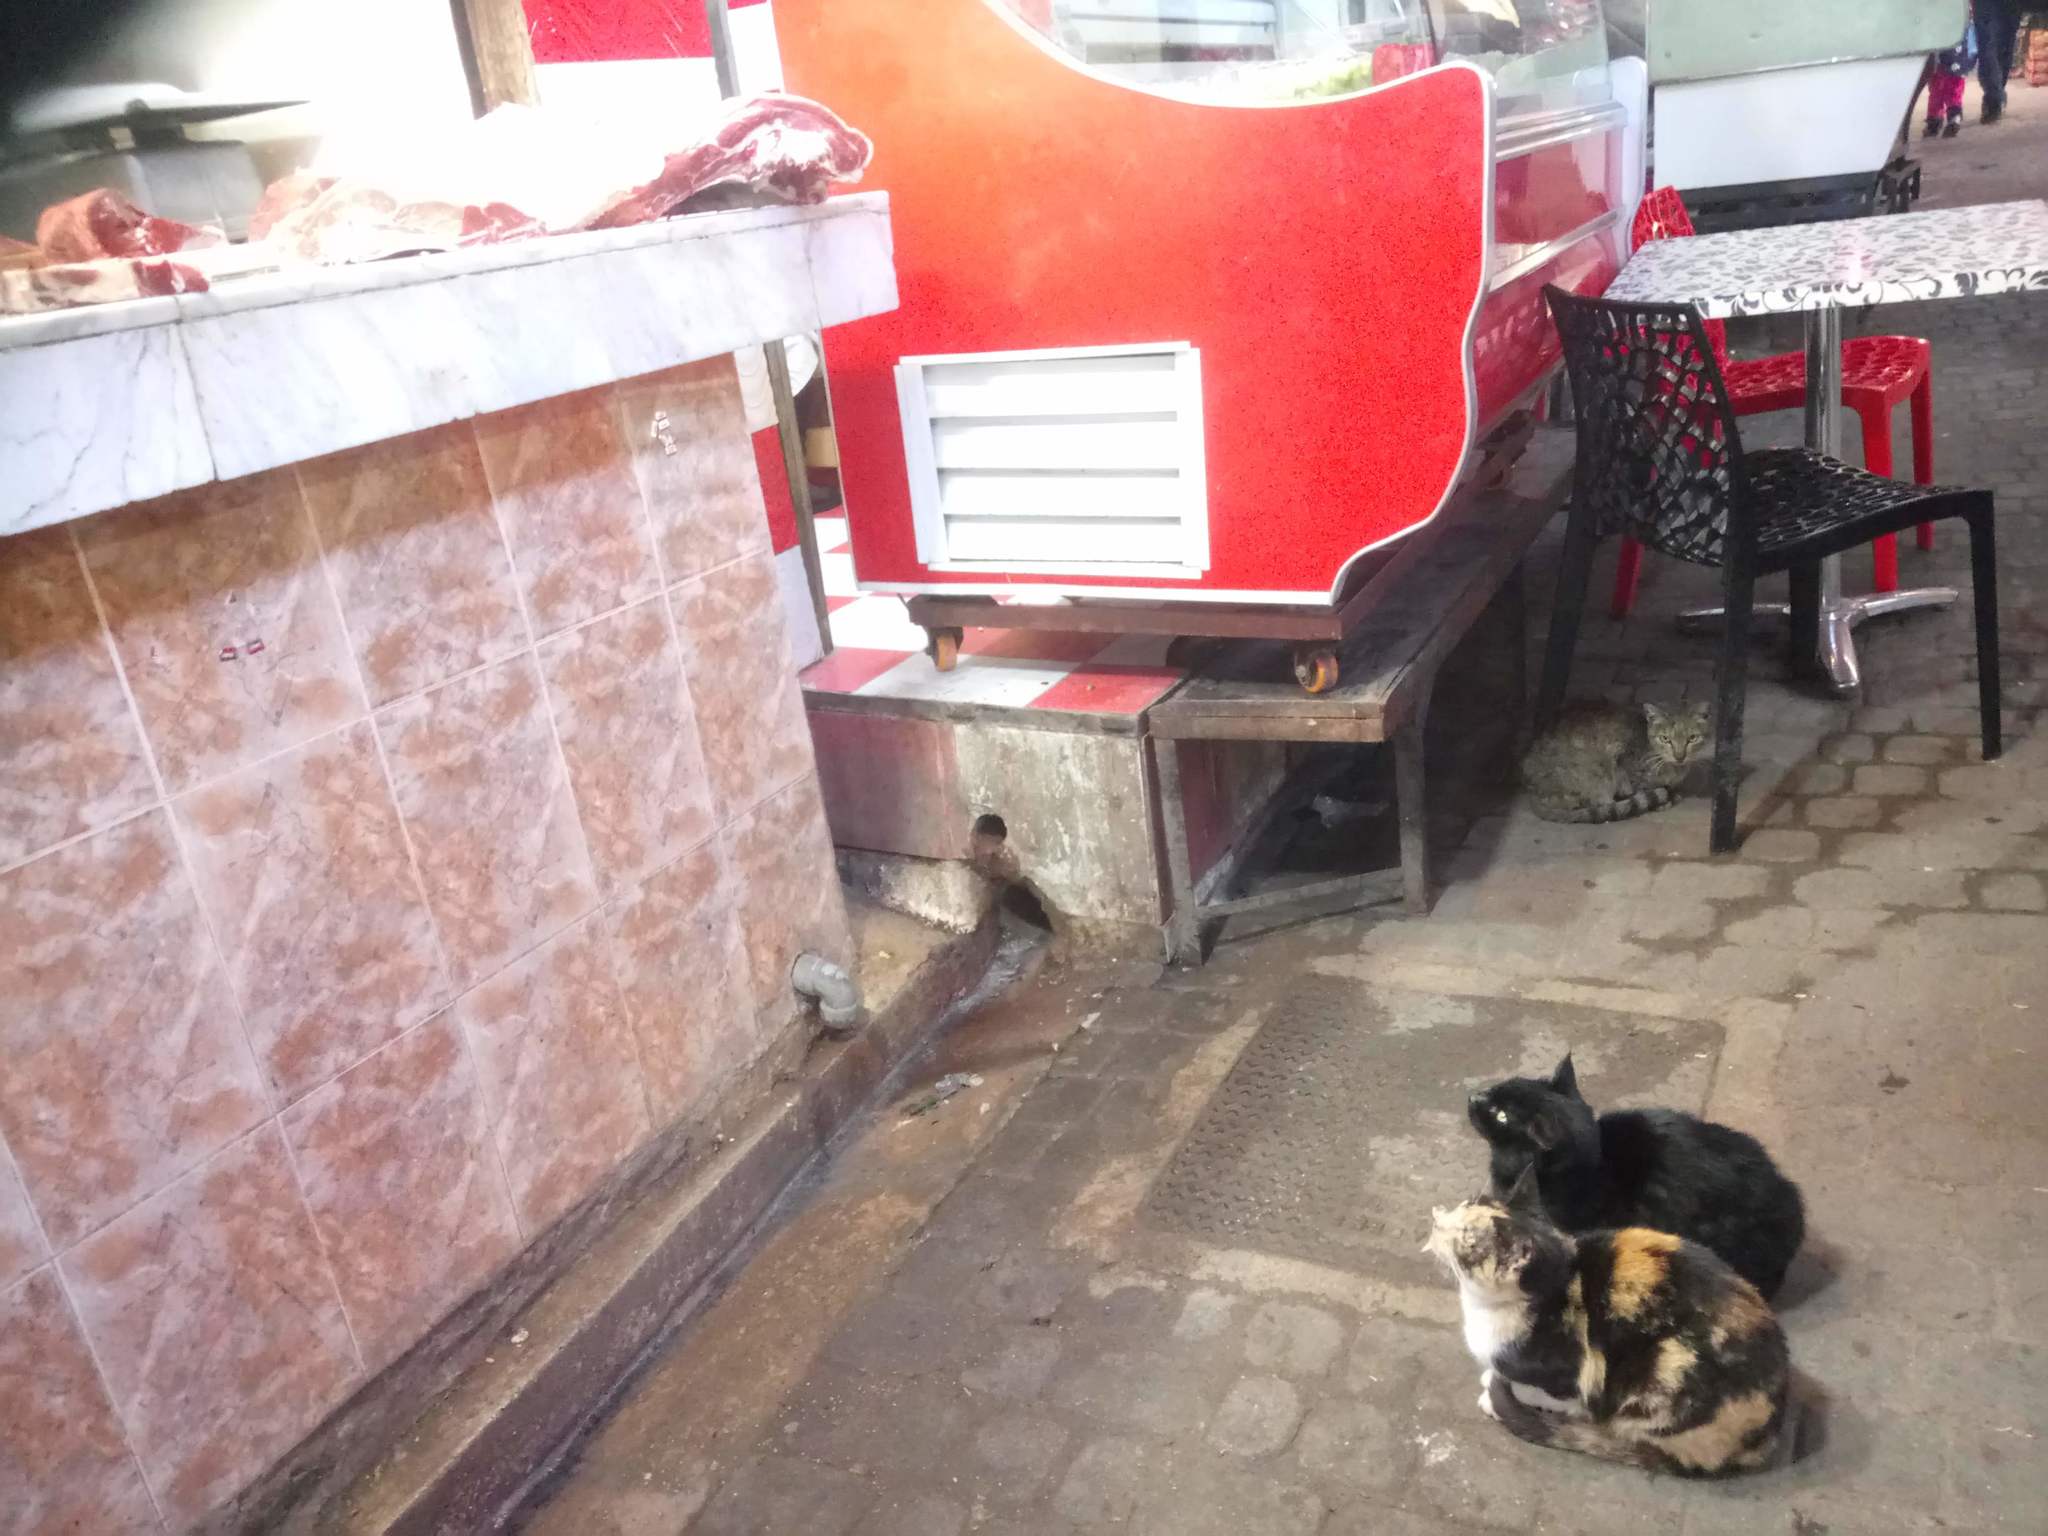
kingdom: Animalia
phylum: Chordata
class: Mammalia
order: Carnivora
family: Felidae
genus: Felis
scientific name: Felis catus
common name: Domestic cat
